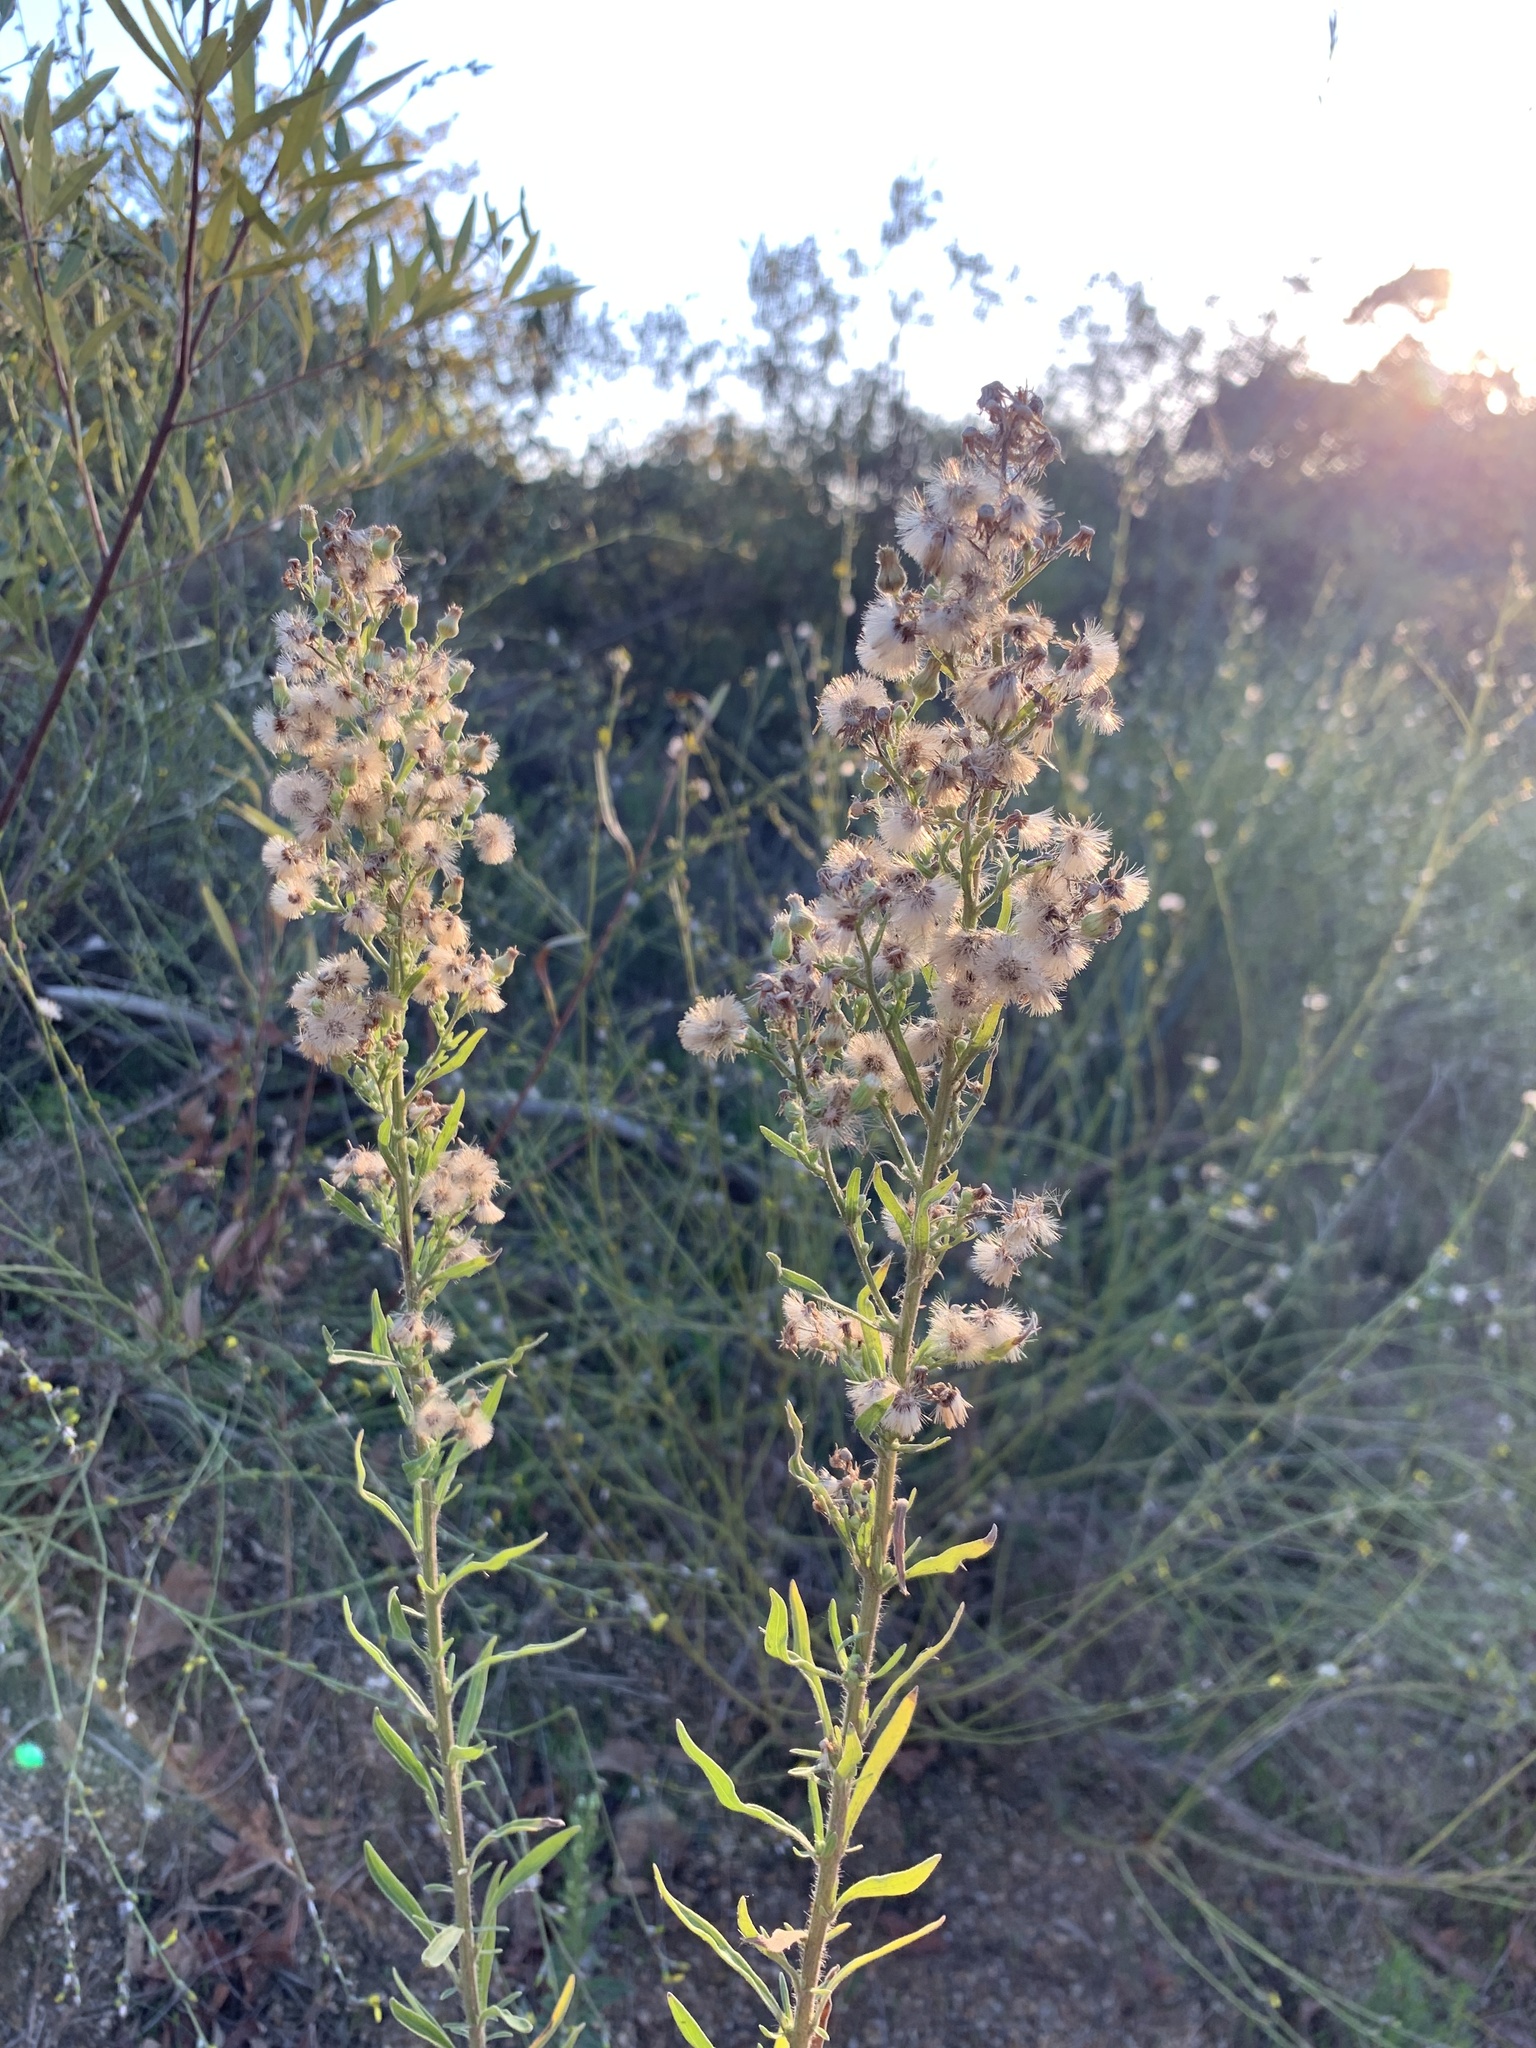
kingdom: Plantae
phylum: Tracheophyta
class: Magnoliopsida
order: Asterales
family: Asteraceae
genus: Erigeron
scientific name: Erigeron sumatrensis
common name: Daisy
